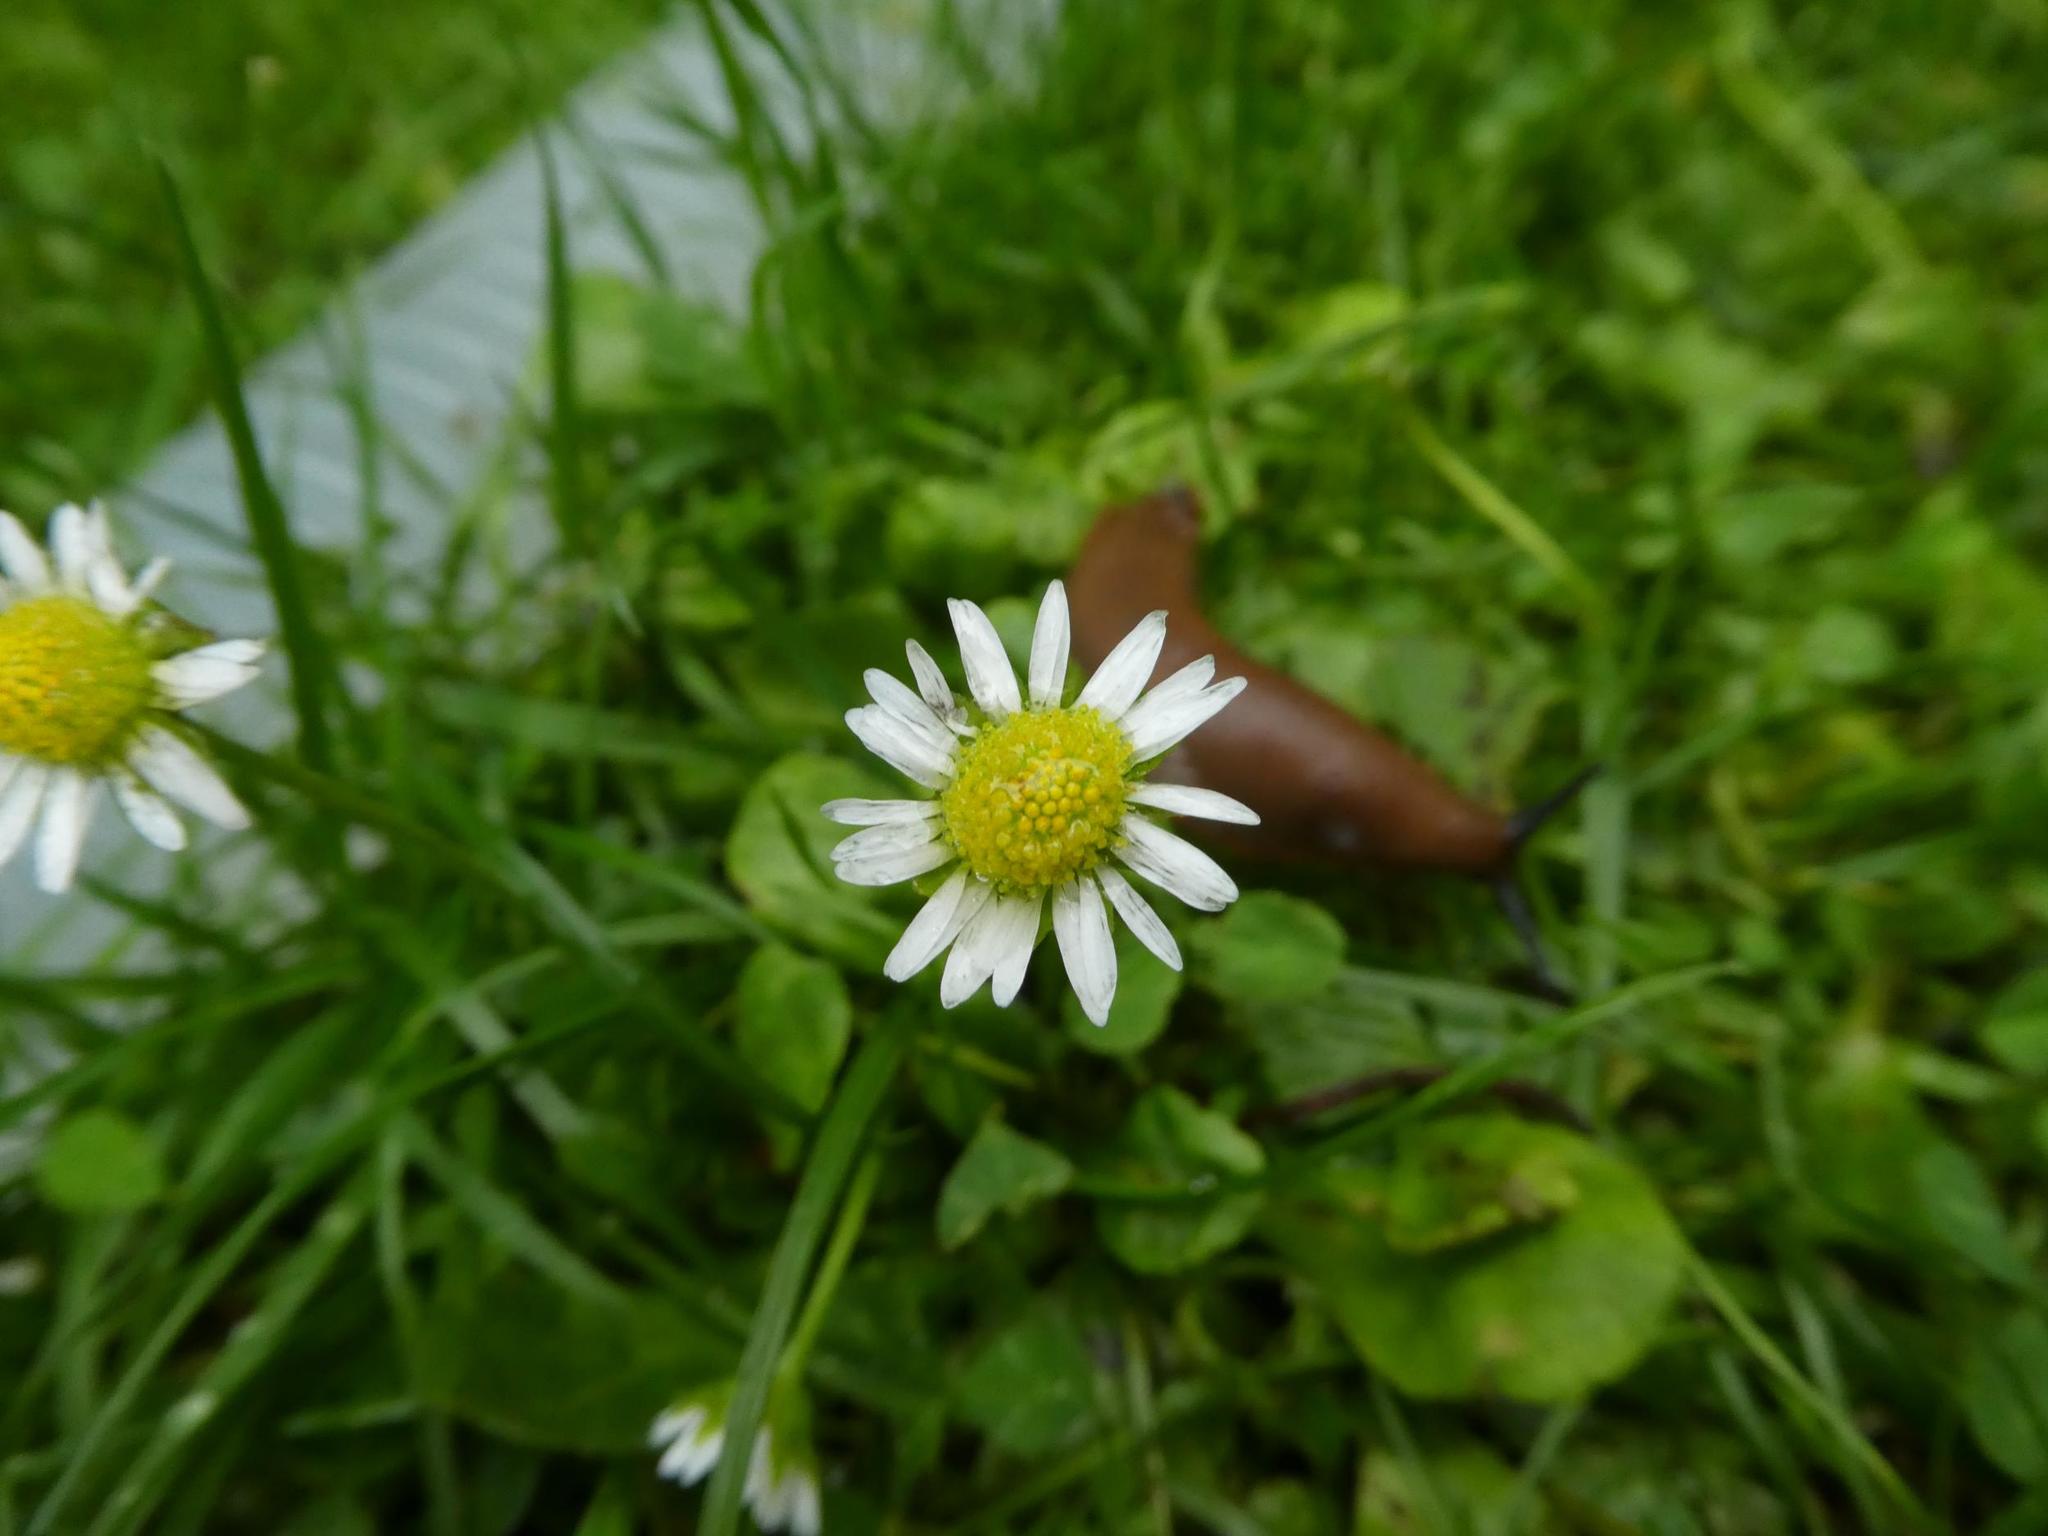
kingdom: Plantae
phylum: Tracheophyta
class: Magnoliopsida
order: Asterales
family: Asteraceae
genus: Bellis
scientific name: Bellis perennis
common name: Lawndaisy
